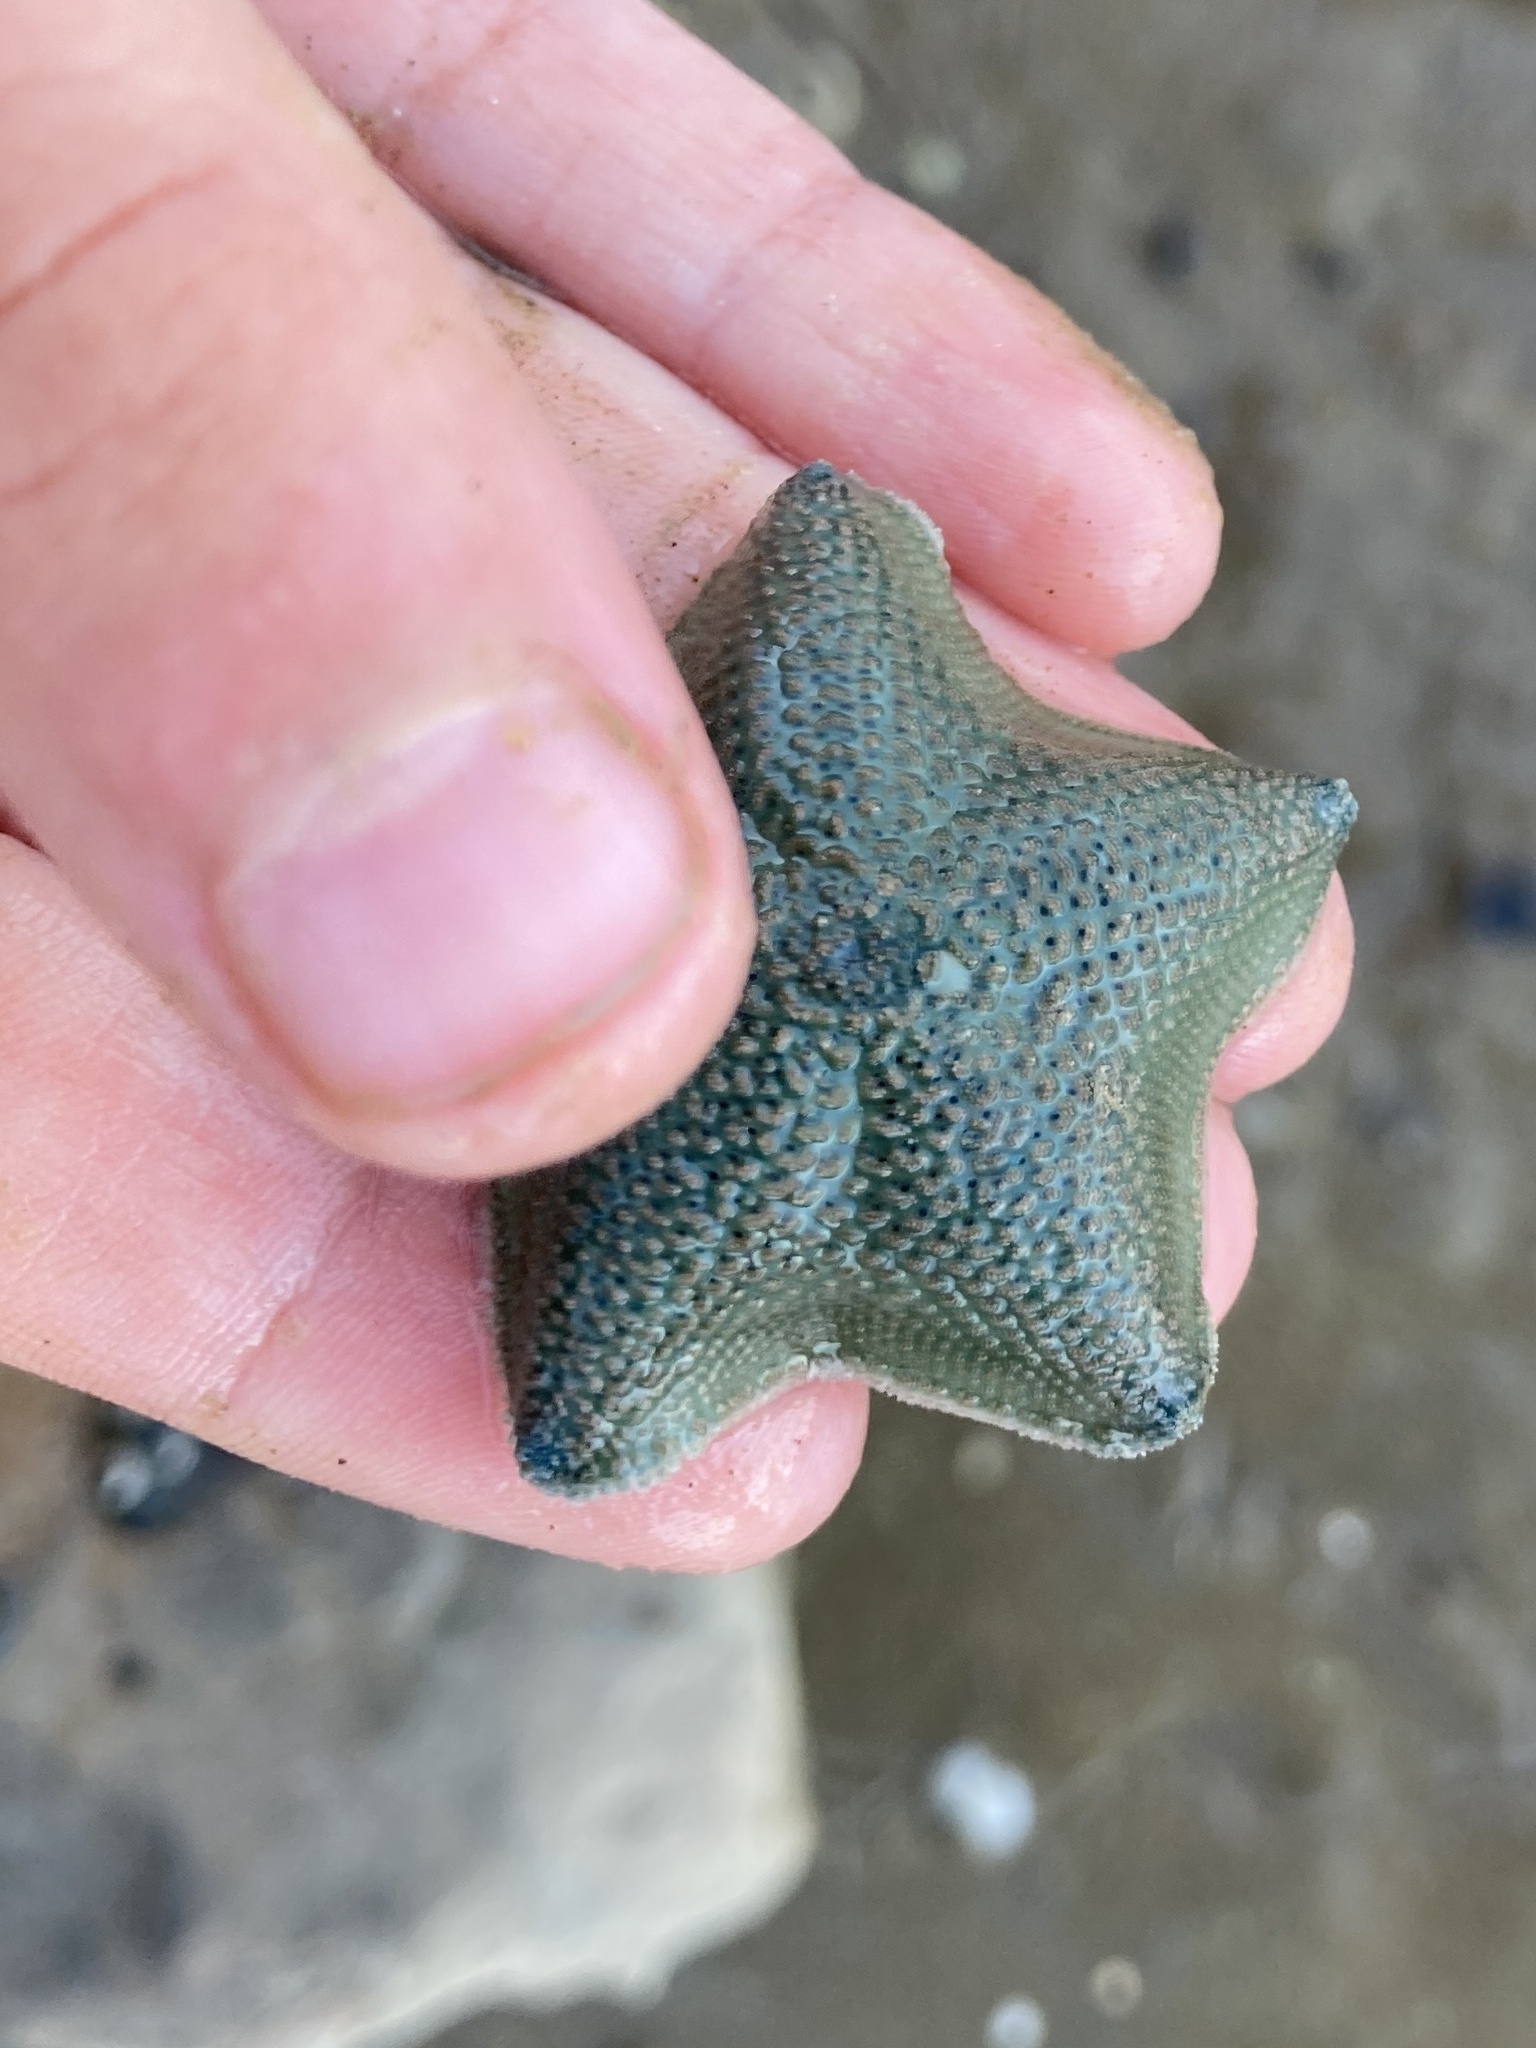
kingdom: Animalia
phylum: Echinodermata
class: Asteroidea
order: Valvatida
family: Asterinidae
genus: Patiriella
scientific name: Patiriella regularis
